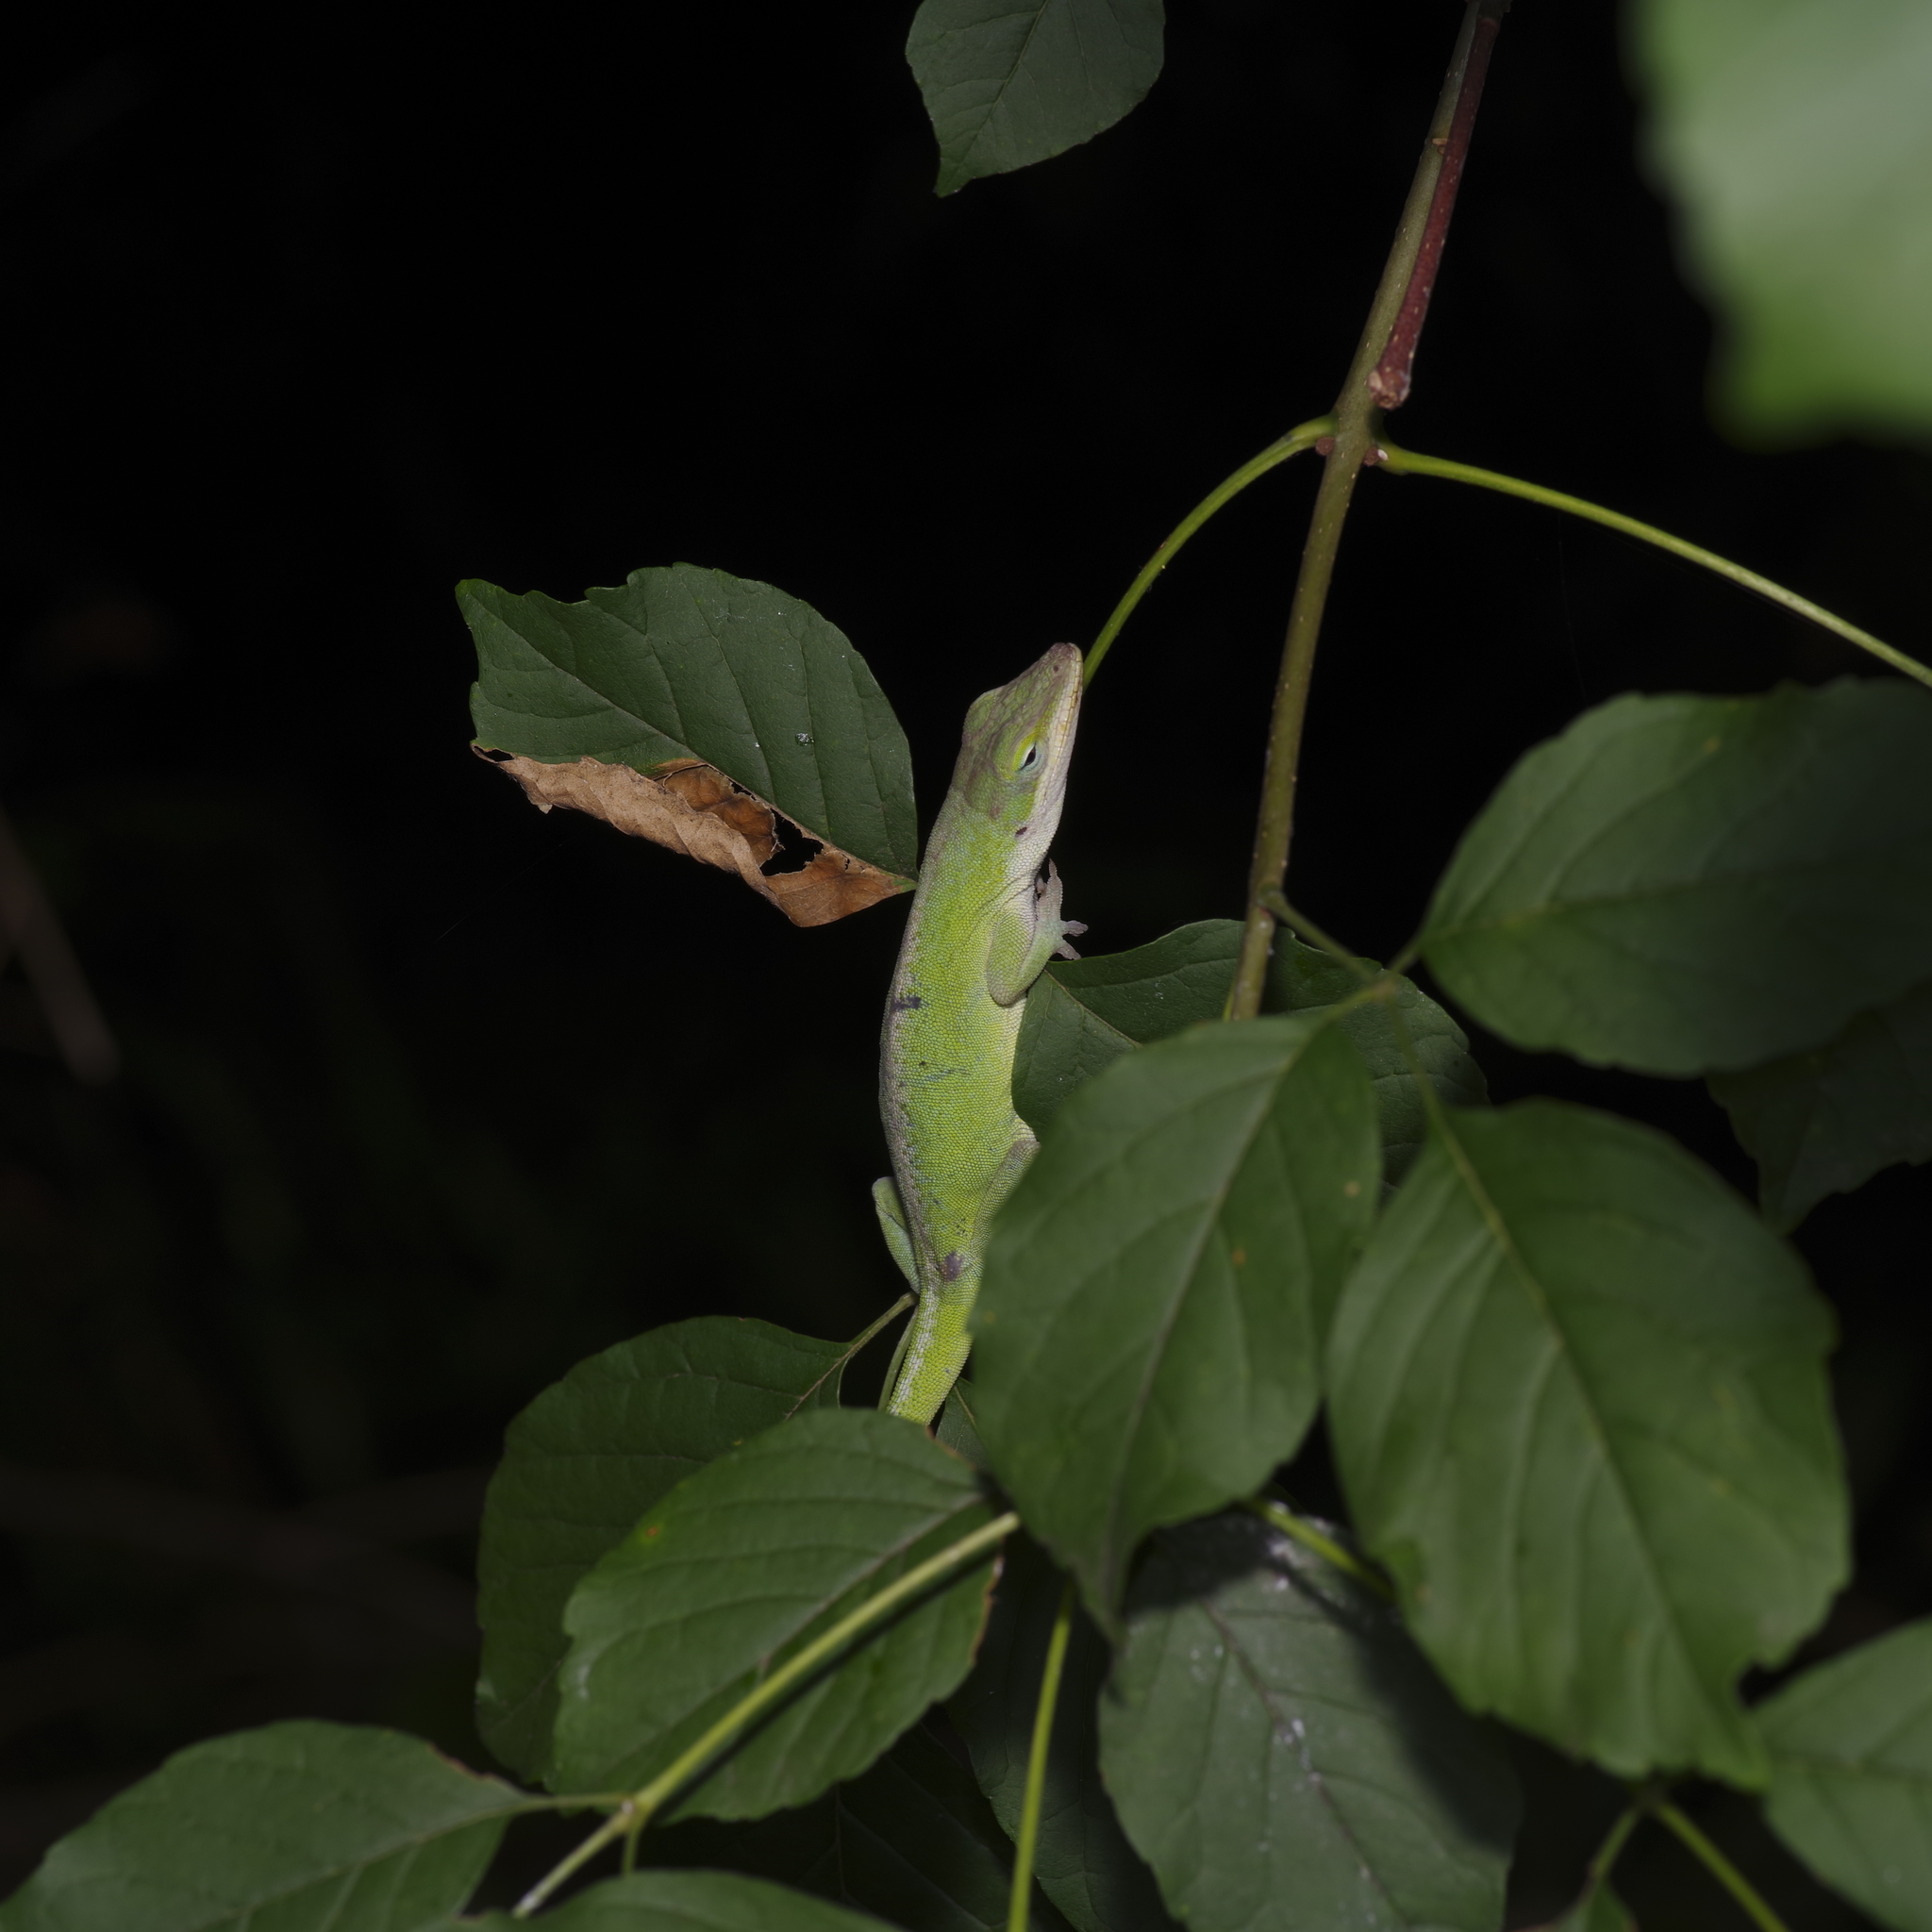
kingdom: Animalia
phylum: Chordata
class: Squamata
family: Dactyloidae
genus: Anolis
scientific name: Anolis carolinensis
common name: Green anole
